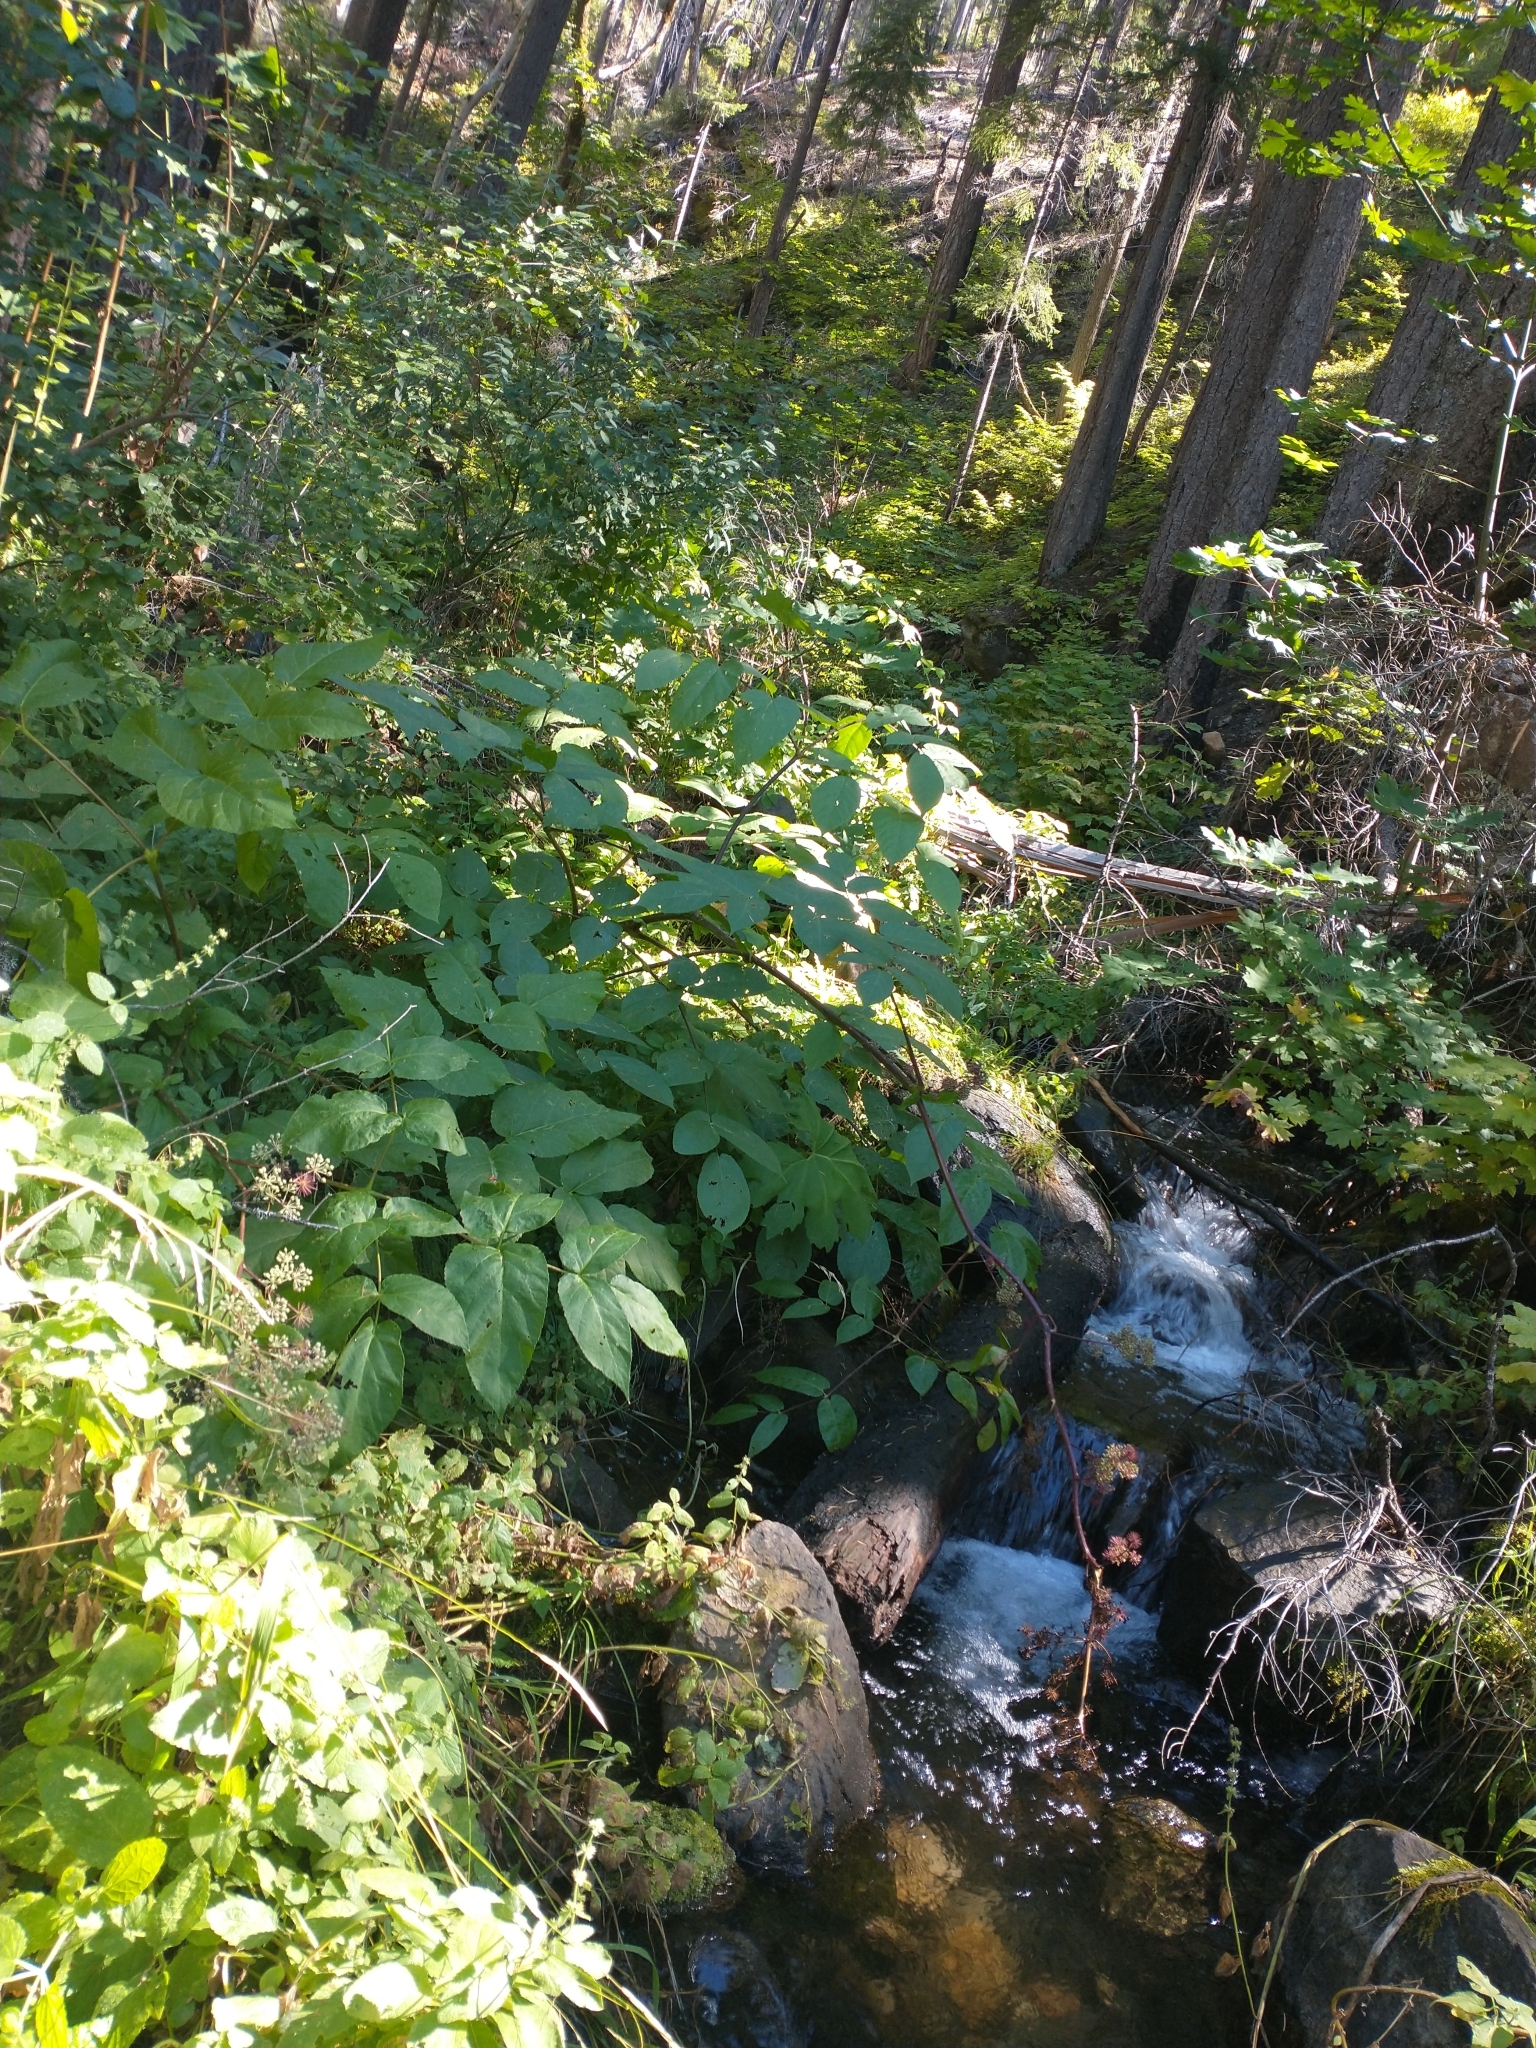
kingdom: Plantae
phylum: Tracheophyta
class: Magnoliopsida
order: Apiales
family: Araliaceae
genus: Aralia
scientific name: Aralia californica
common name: California-ginseng
